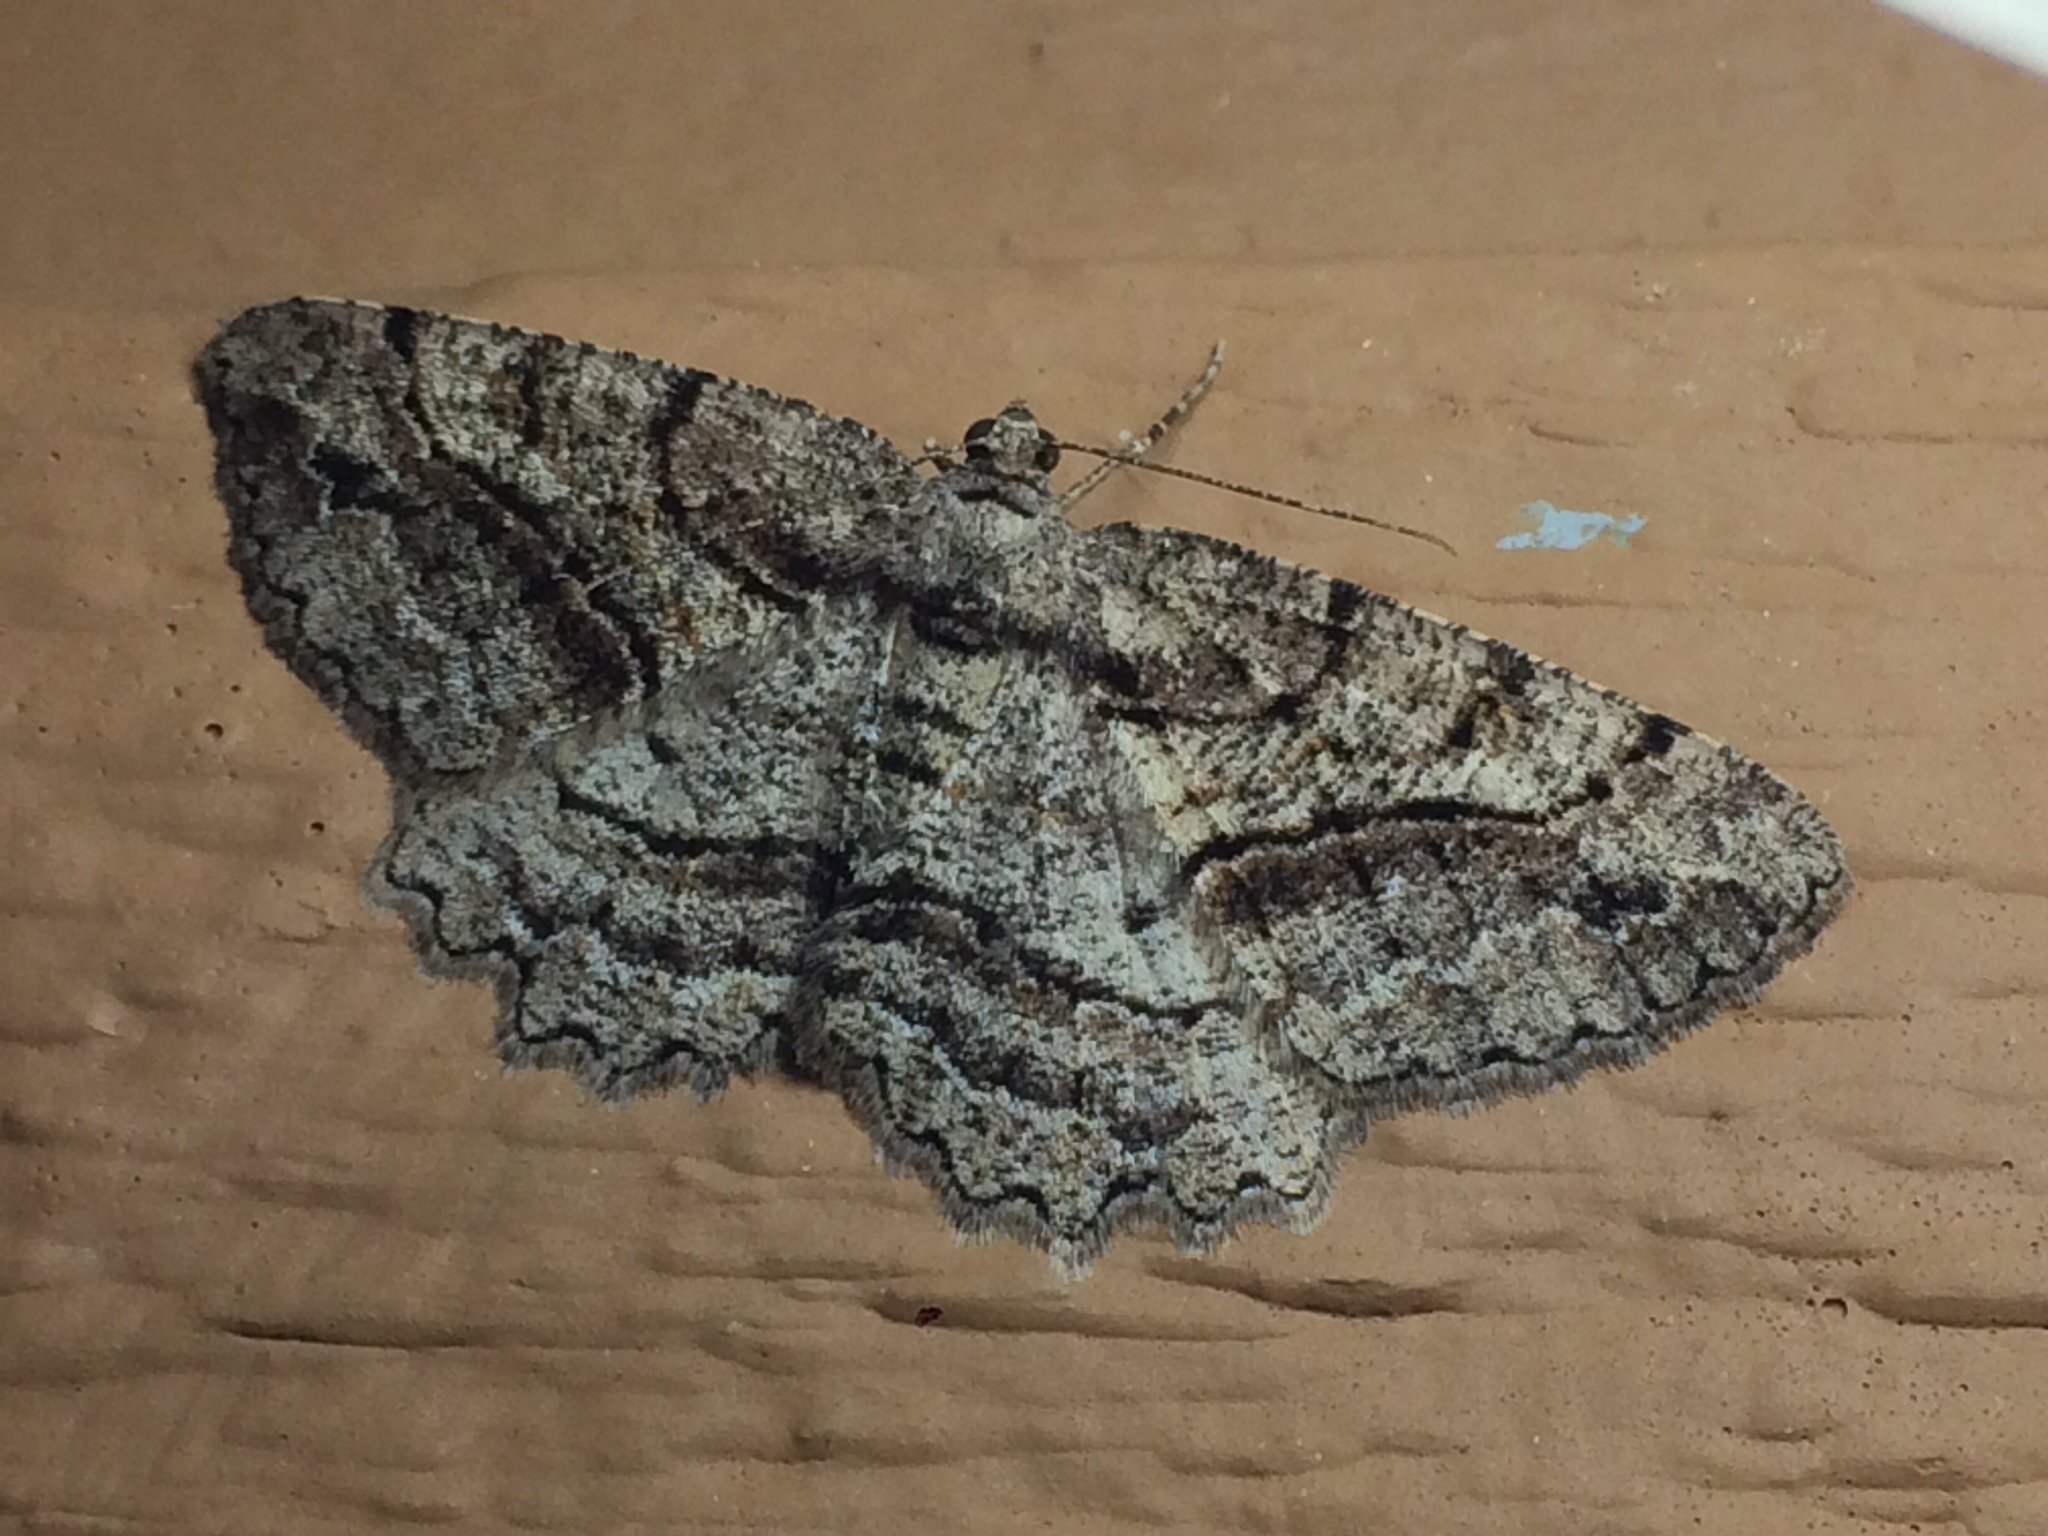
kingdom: Animalia
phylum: Arthropoda
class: Insecta
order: Lepidoptera
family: Geometridae
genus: Neoalcis
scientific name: Neoalcis californiaria
